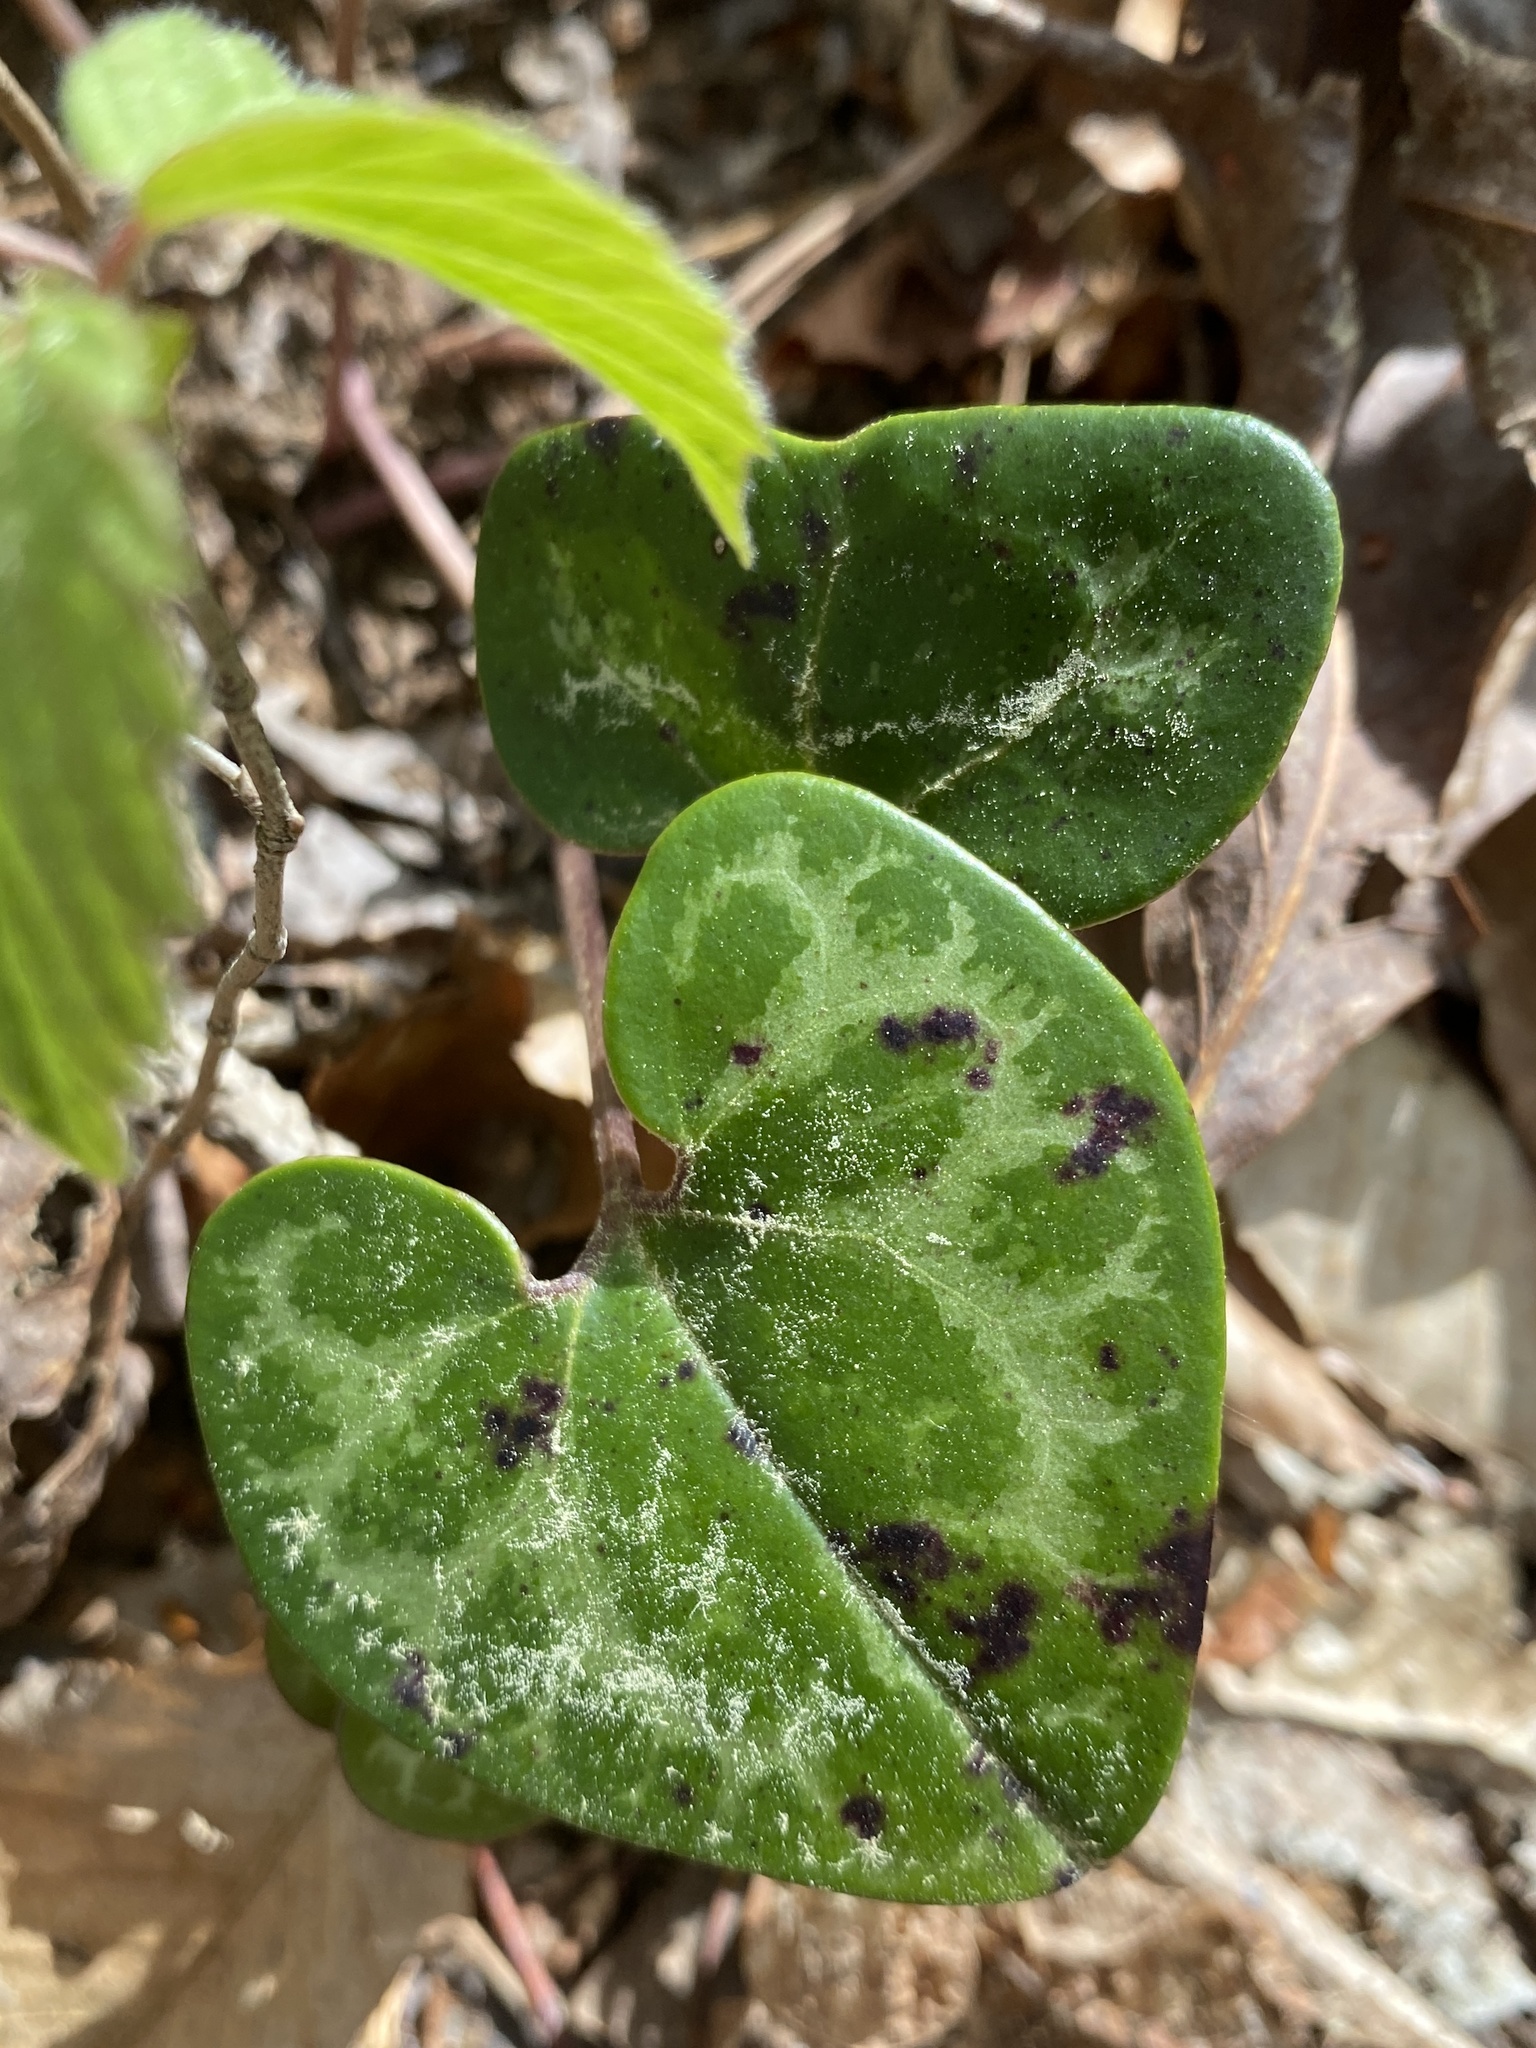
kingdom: Plantae
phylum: Tracheophyta
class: Magnoliopsida
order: Piperales
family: Aristolochiaceae
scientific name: Aristolochiaceae
